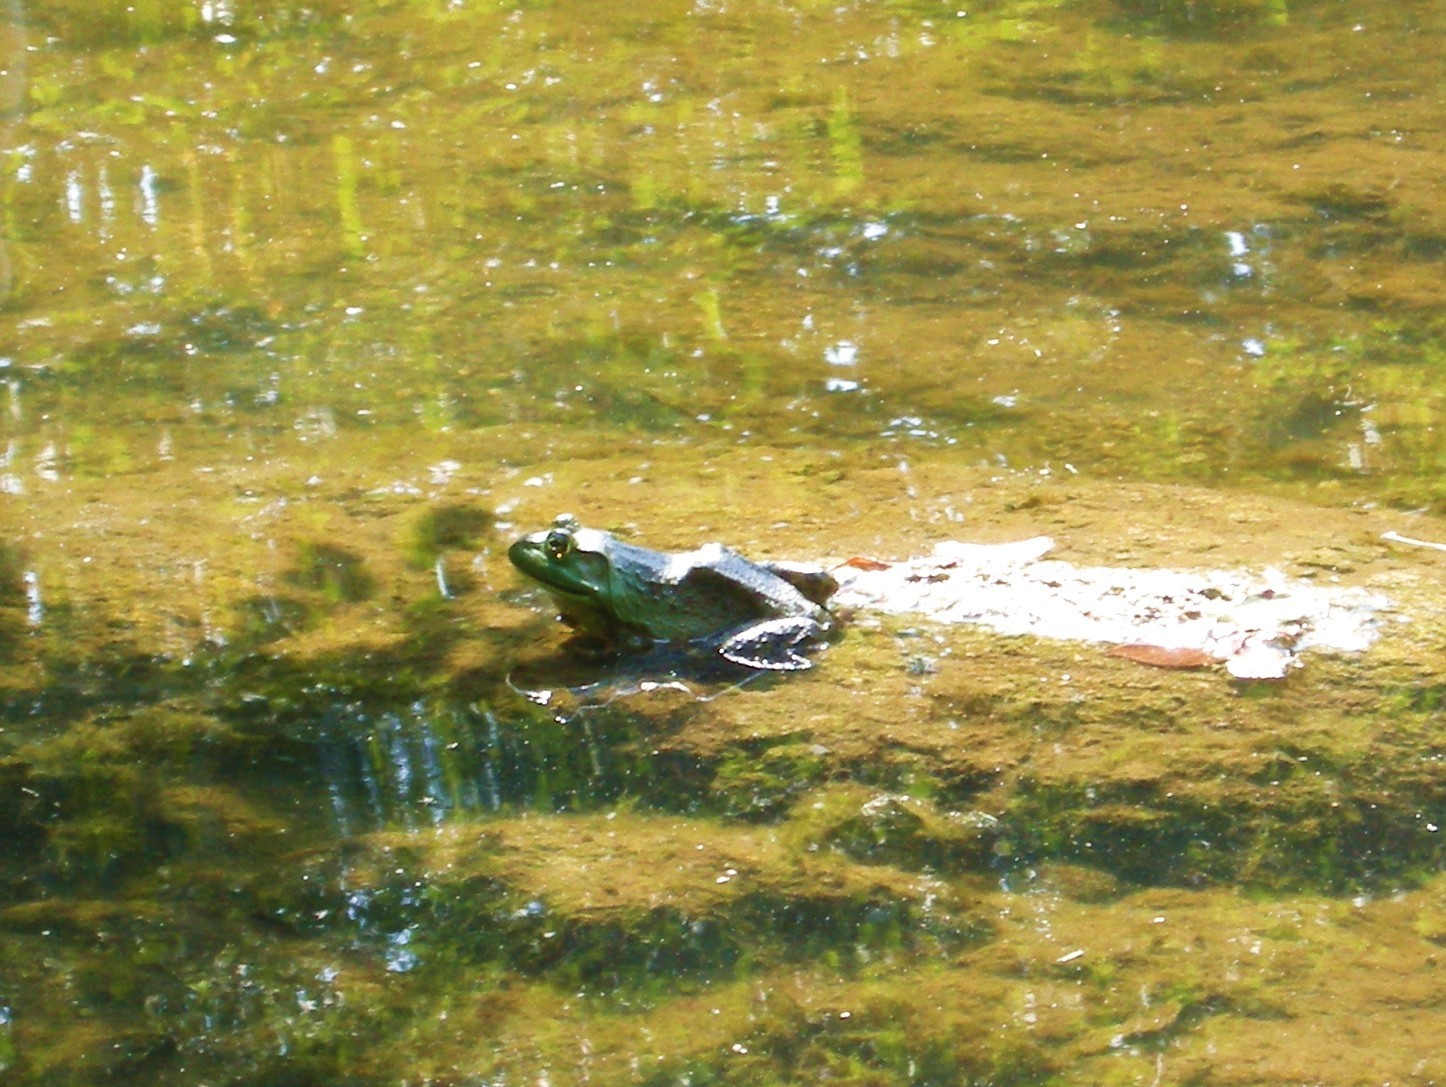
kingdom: Animalia
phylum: Chordata
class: Amphibia
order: Anura
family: Ranidae
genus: Lithobates
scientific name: Lithobates catesbeianus
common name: American bullfrog
